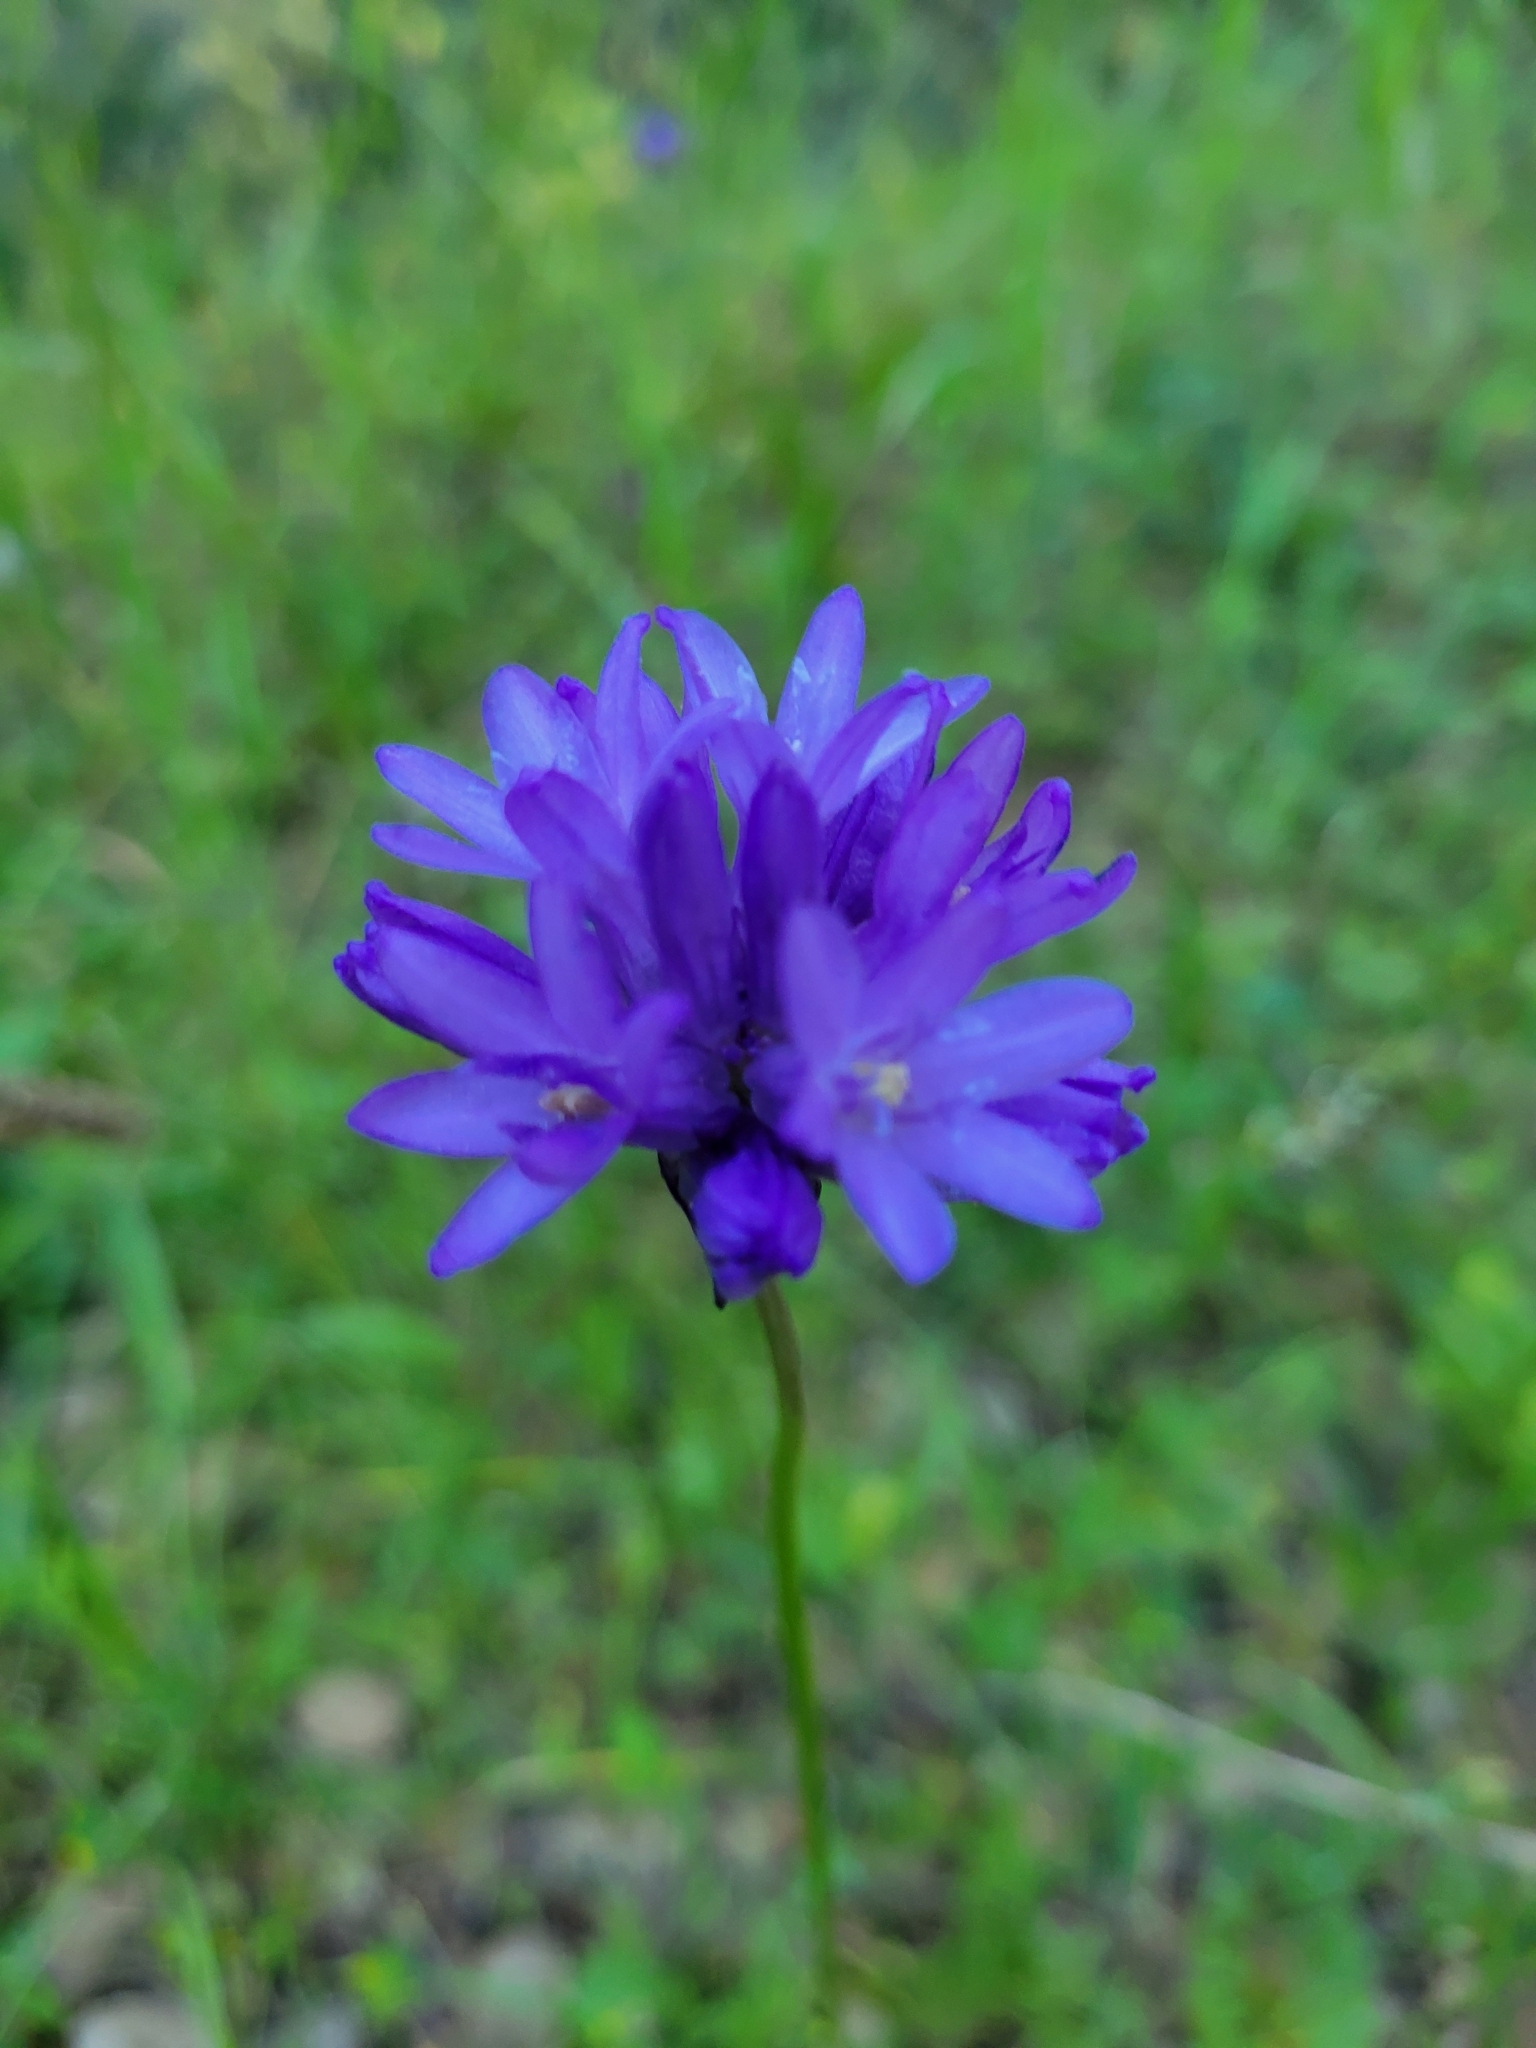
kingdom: Plantae
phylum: Tracheophyta
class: Liliopsida
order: Asparagales
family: Asparagaceae
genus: Dichelostemma
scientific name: Dichelostemma congestum
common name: Fork-tooth ookow
